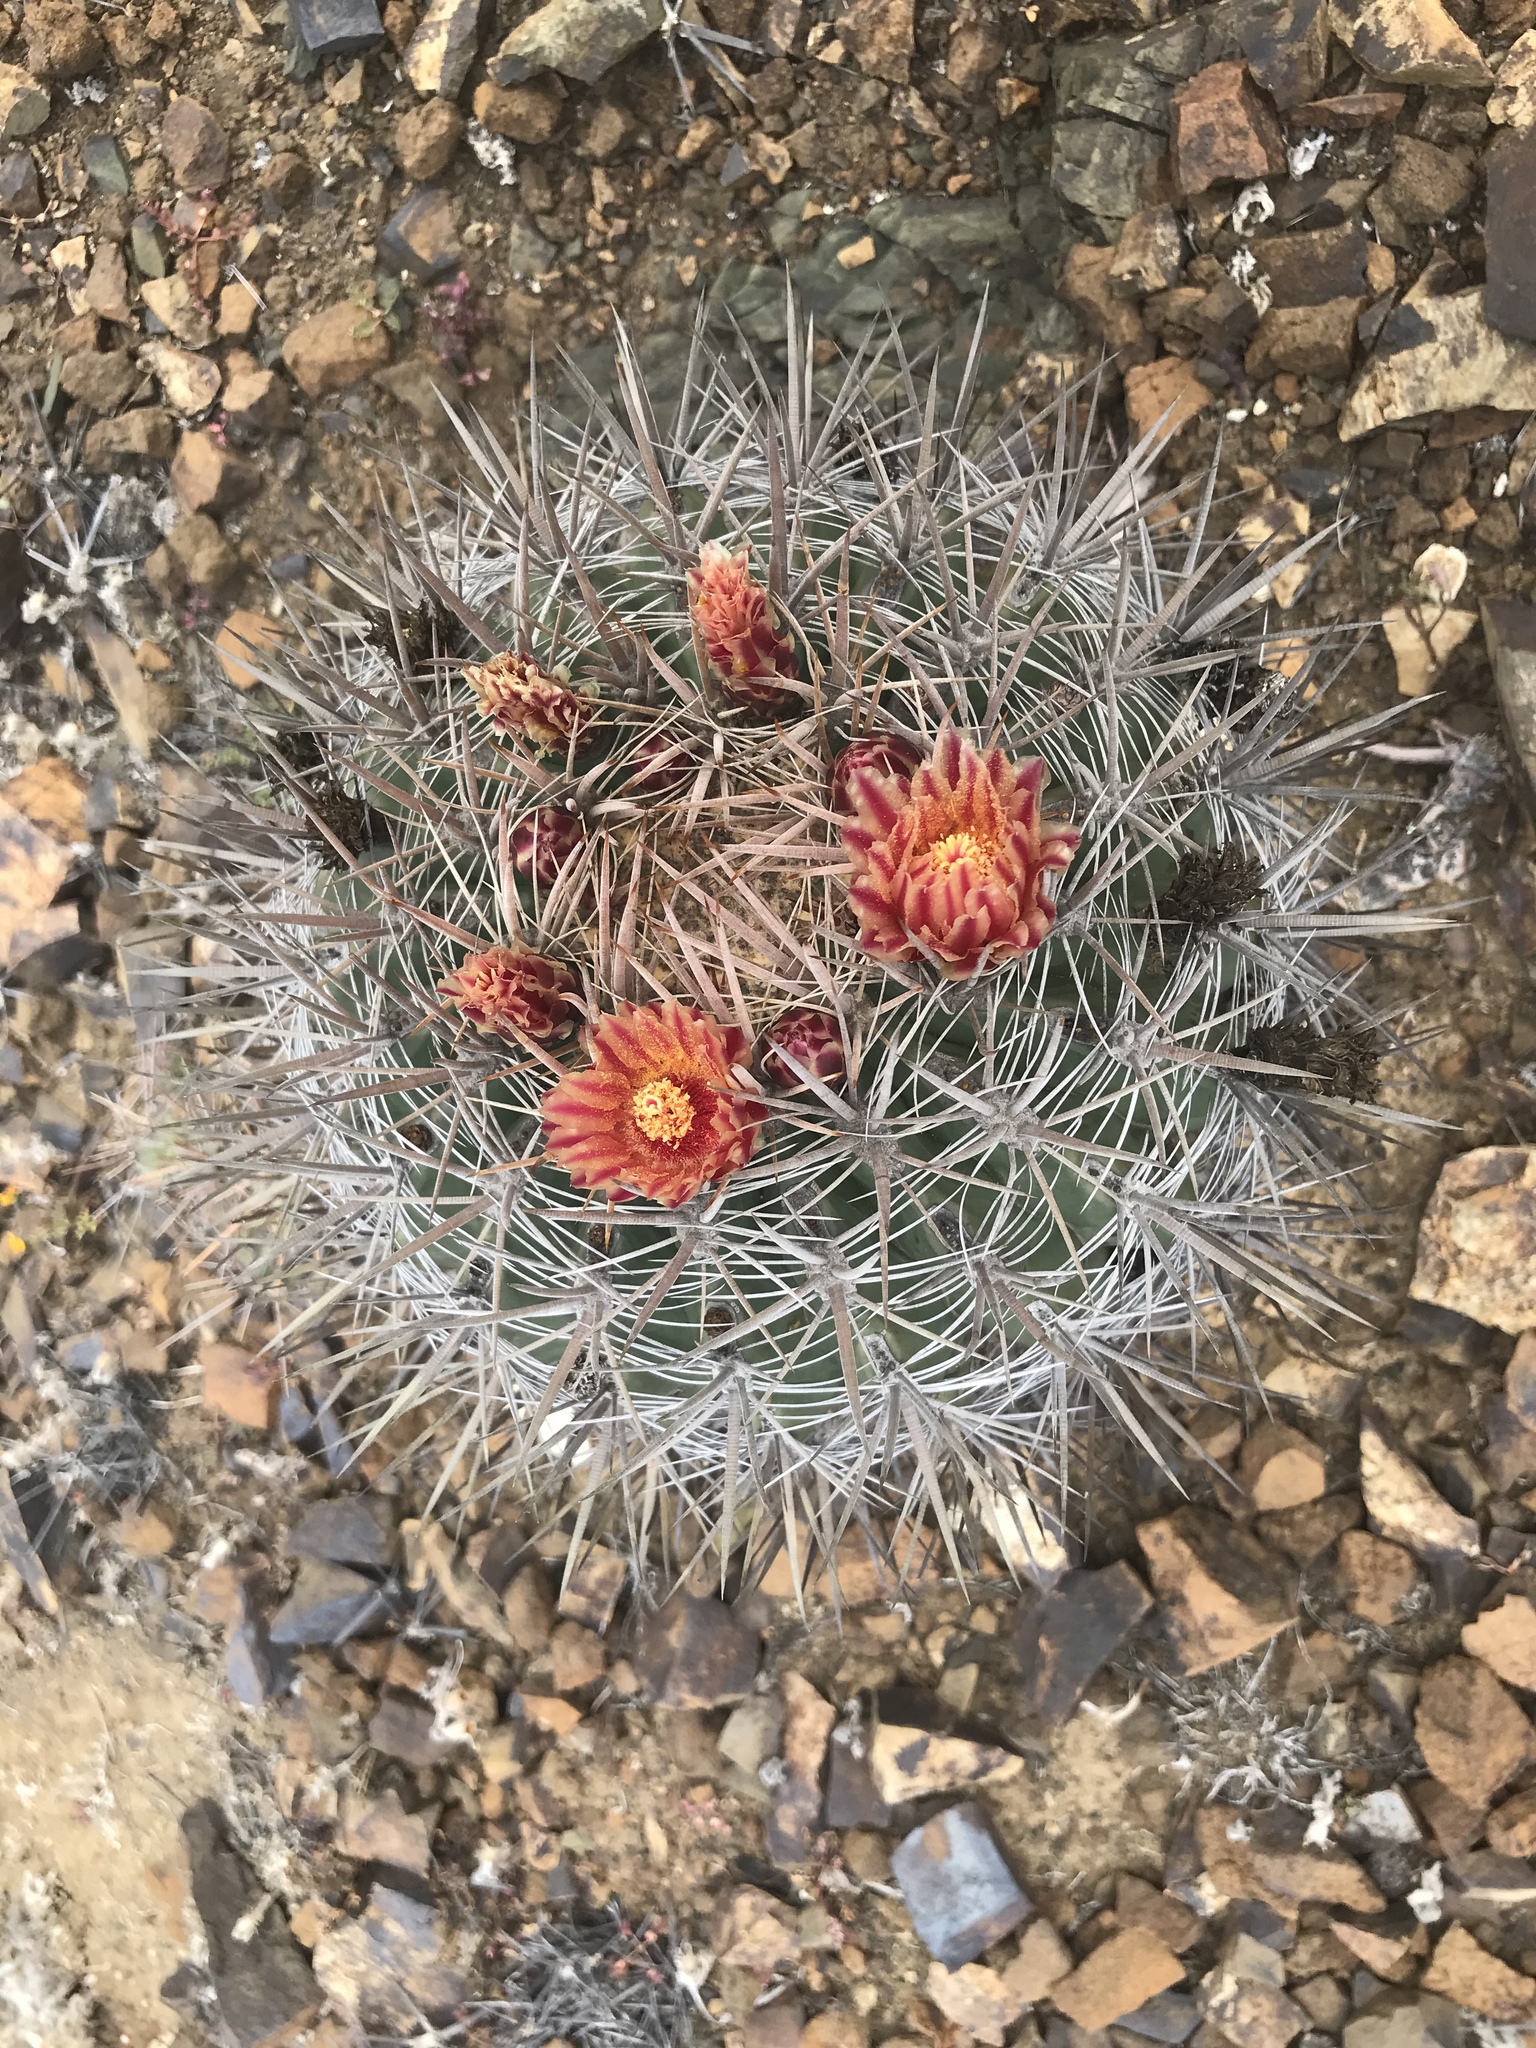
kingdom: Plantae
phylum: Tracheophyta
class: Magnoliopsida
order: Caryophyllales
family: Cactaceae
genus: Ferocactus
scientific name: Ferocactus chrysacanthus
